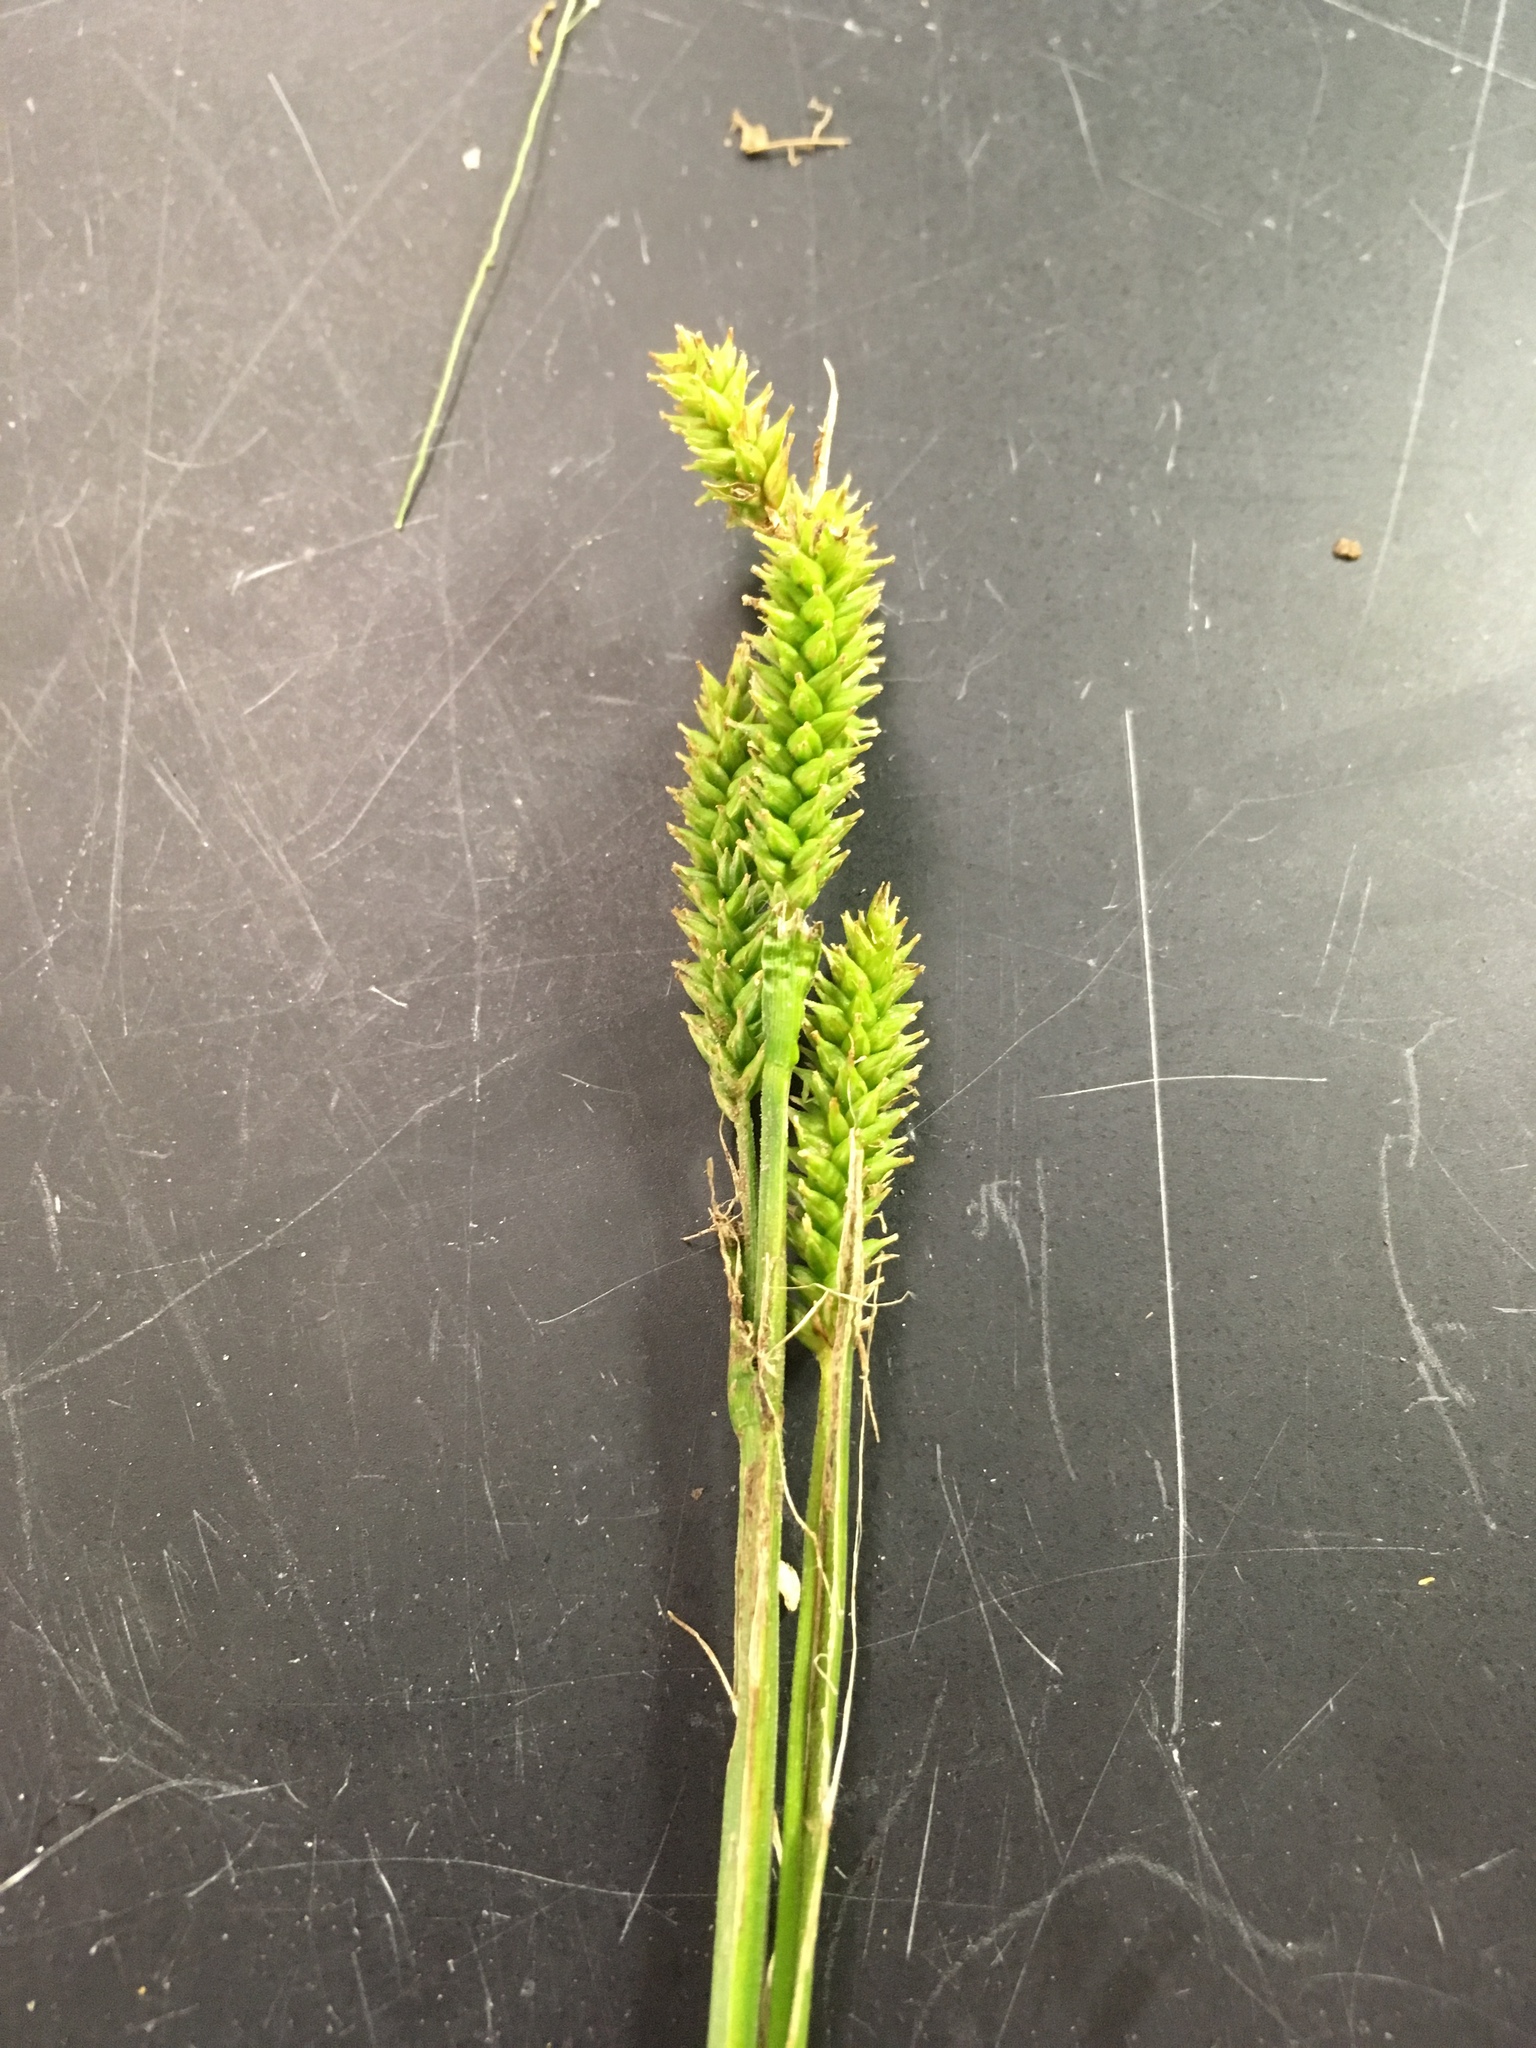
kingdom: Plantae
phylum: Tracheophyta
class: Liliopsida
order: Poales
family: Cyperaceae
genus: Carex
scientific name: Carex scabrata
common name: Eastern rough sedge
